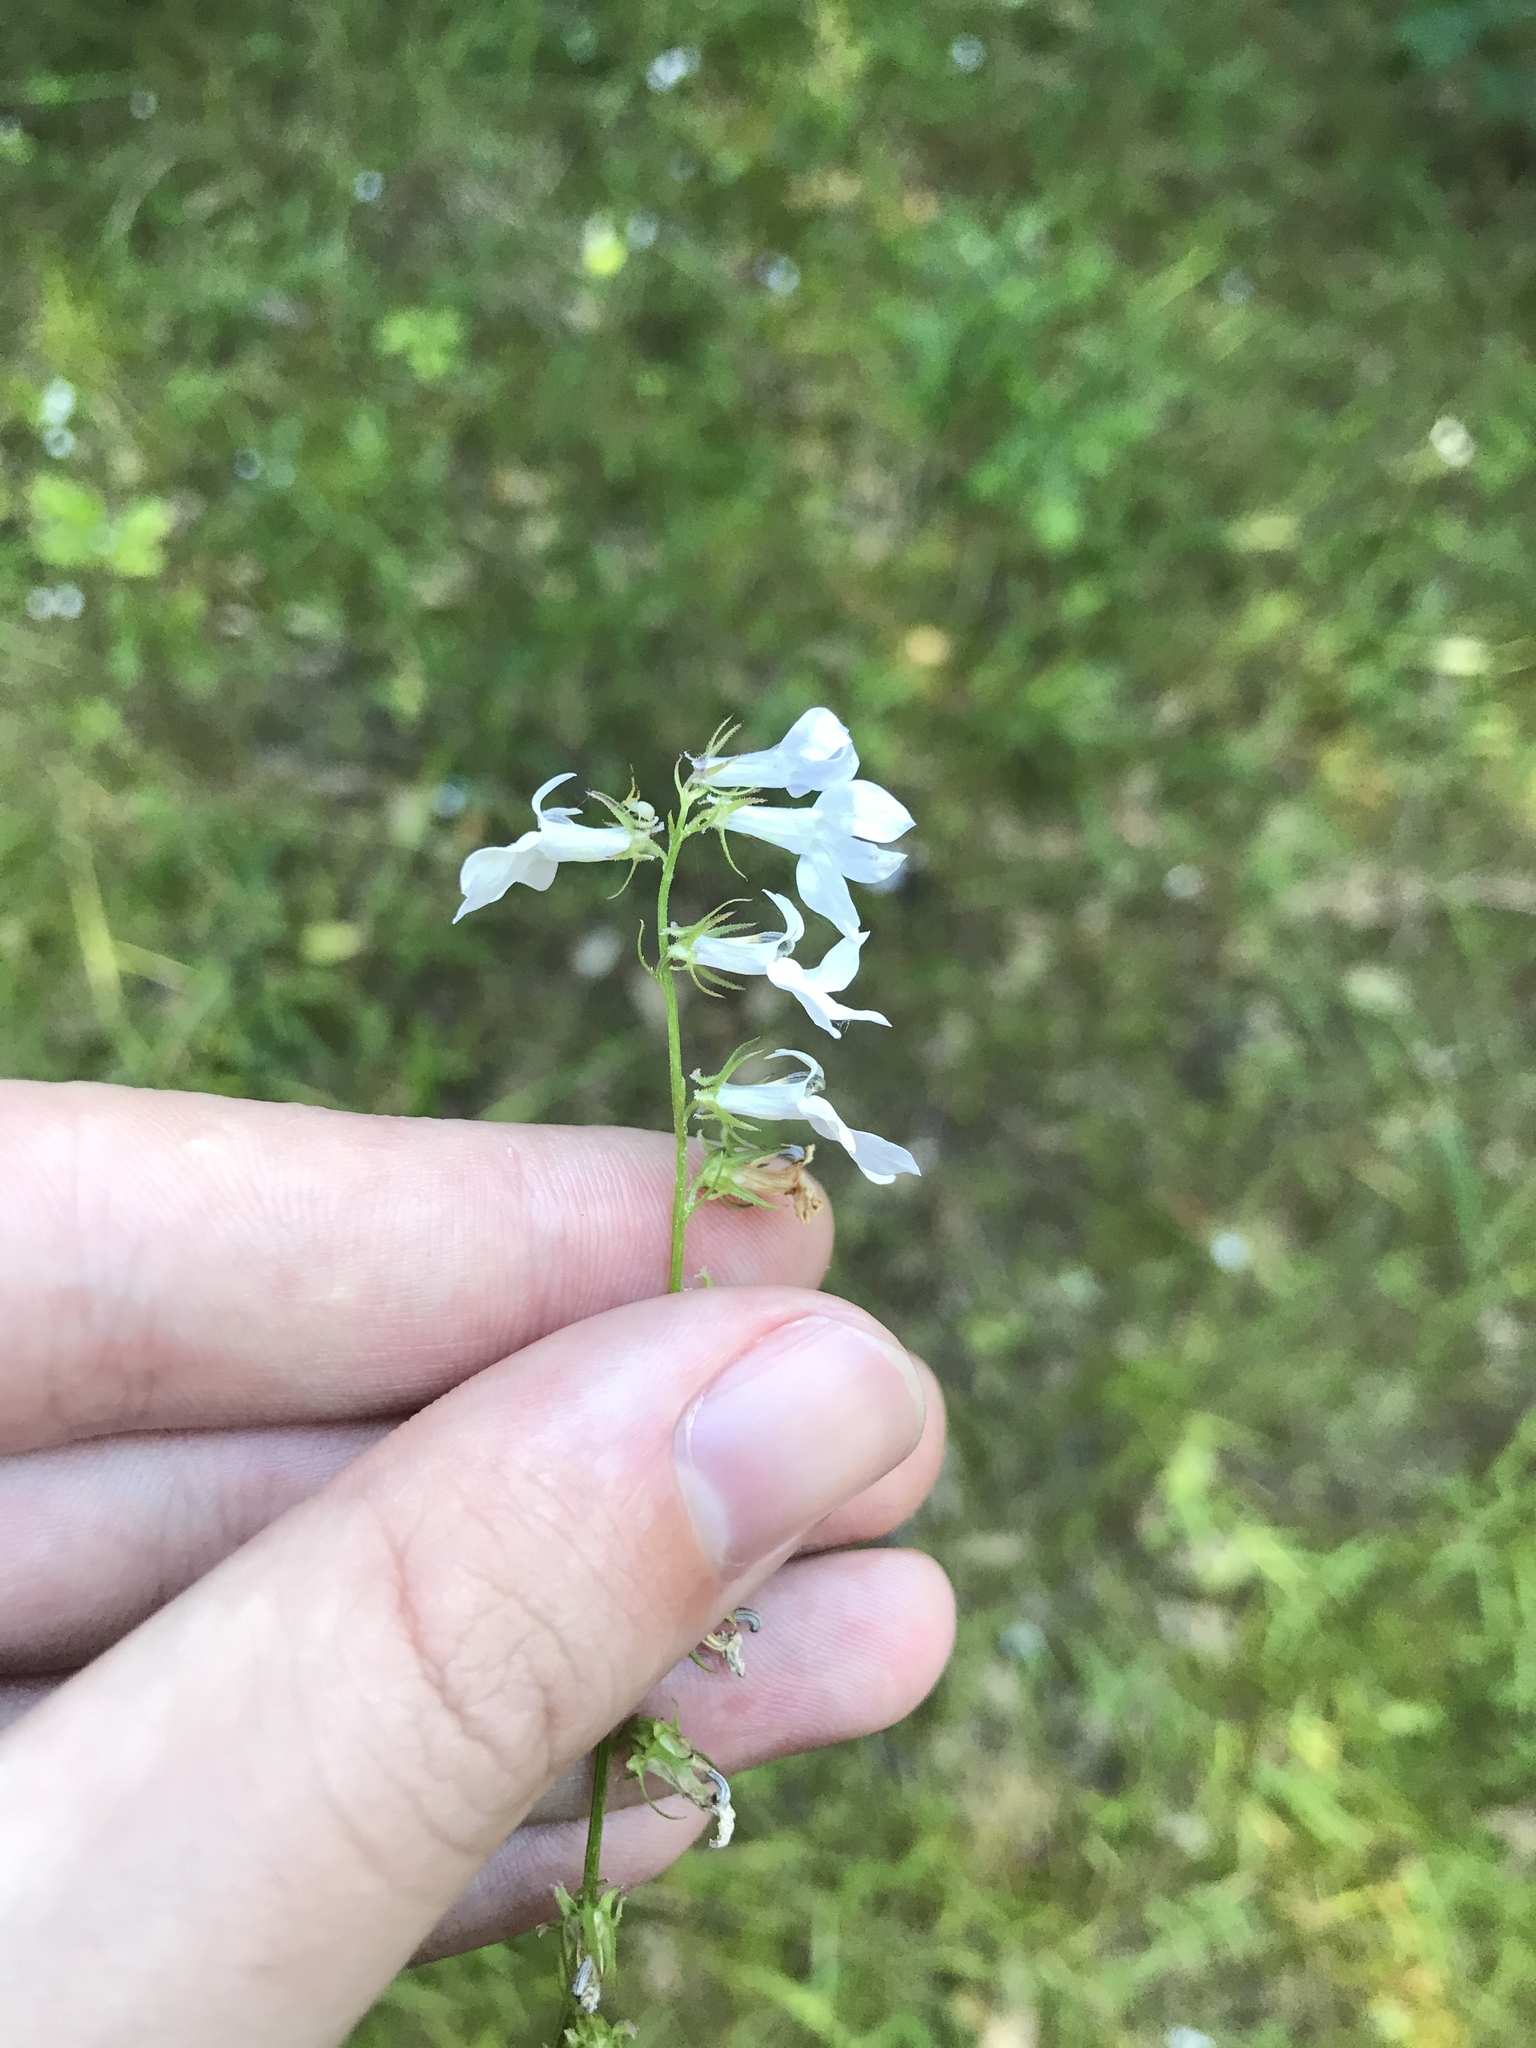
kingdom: Plantae
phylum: Tracheophyta
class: Magnoliopsida
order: Asterales
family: Campanulaceae
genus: Lobelia
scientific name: Lobelia appendiculata
